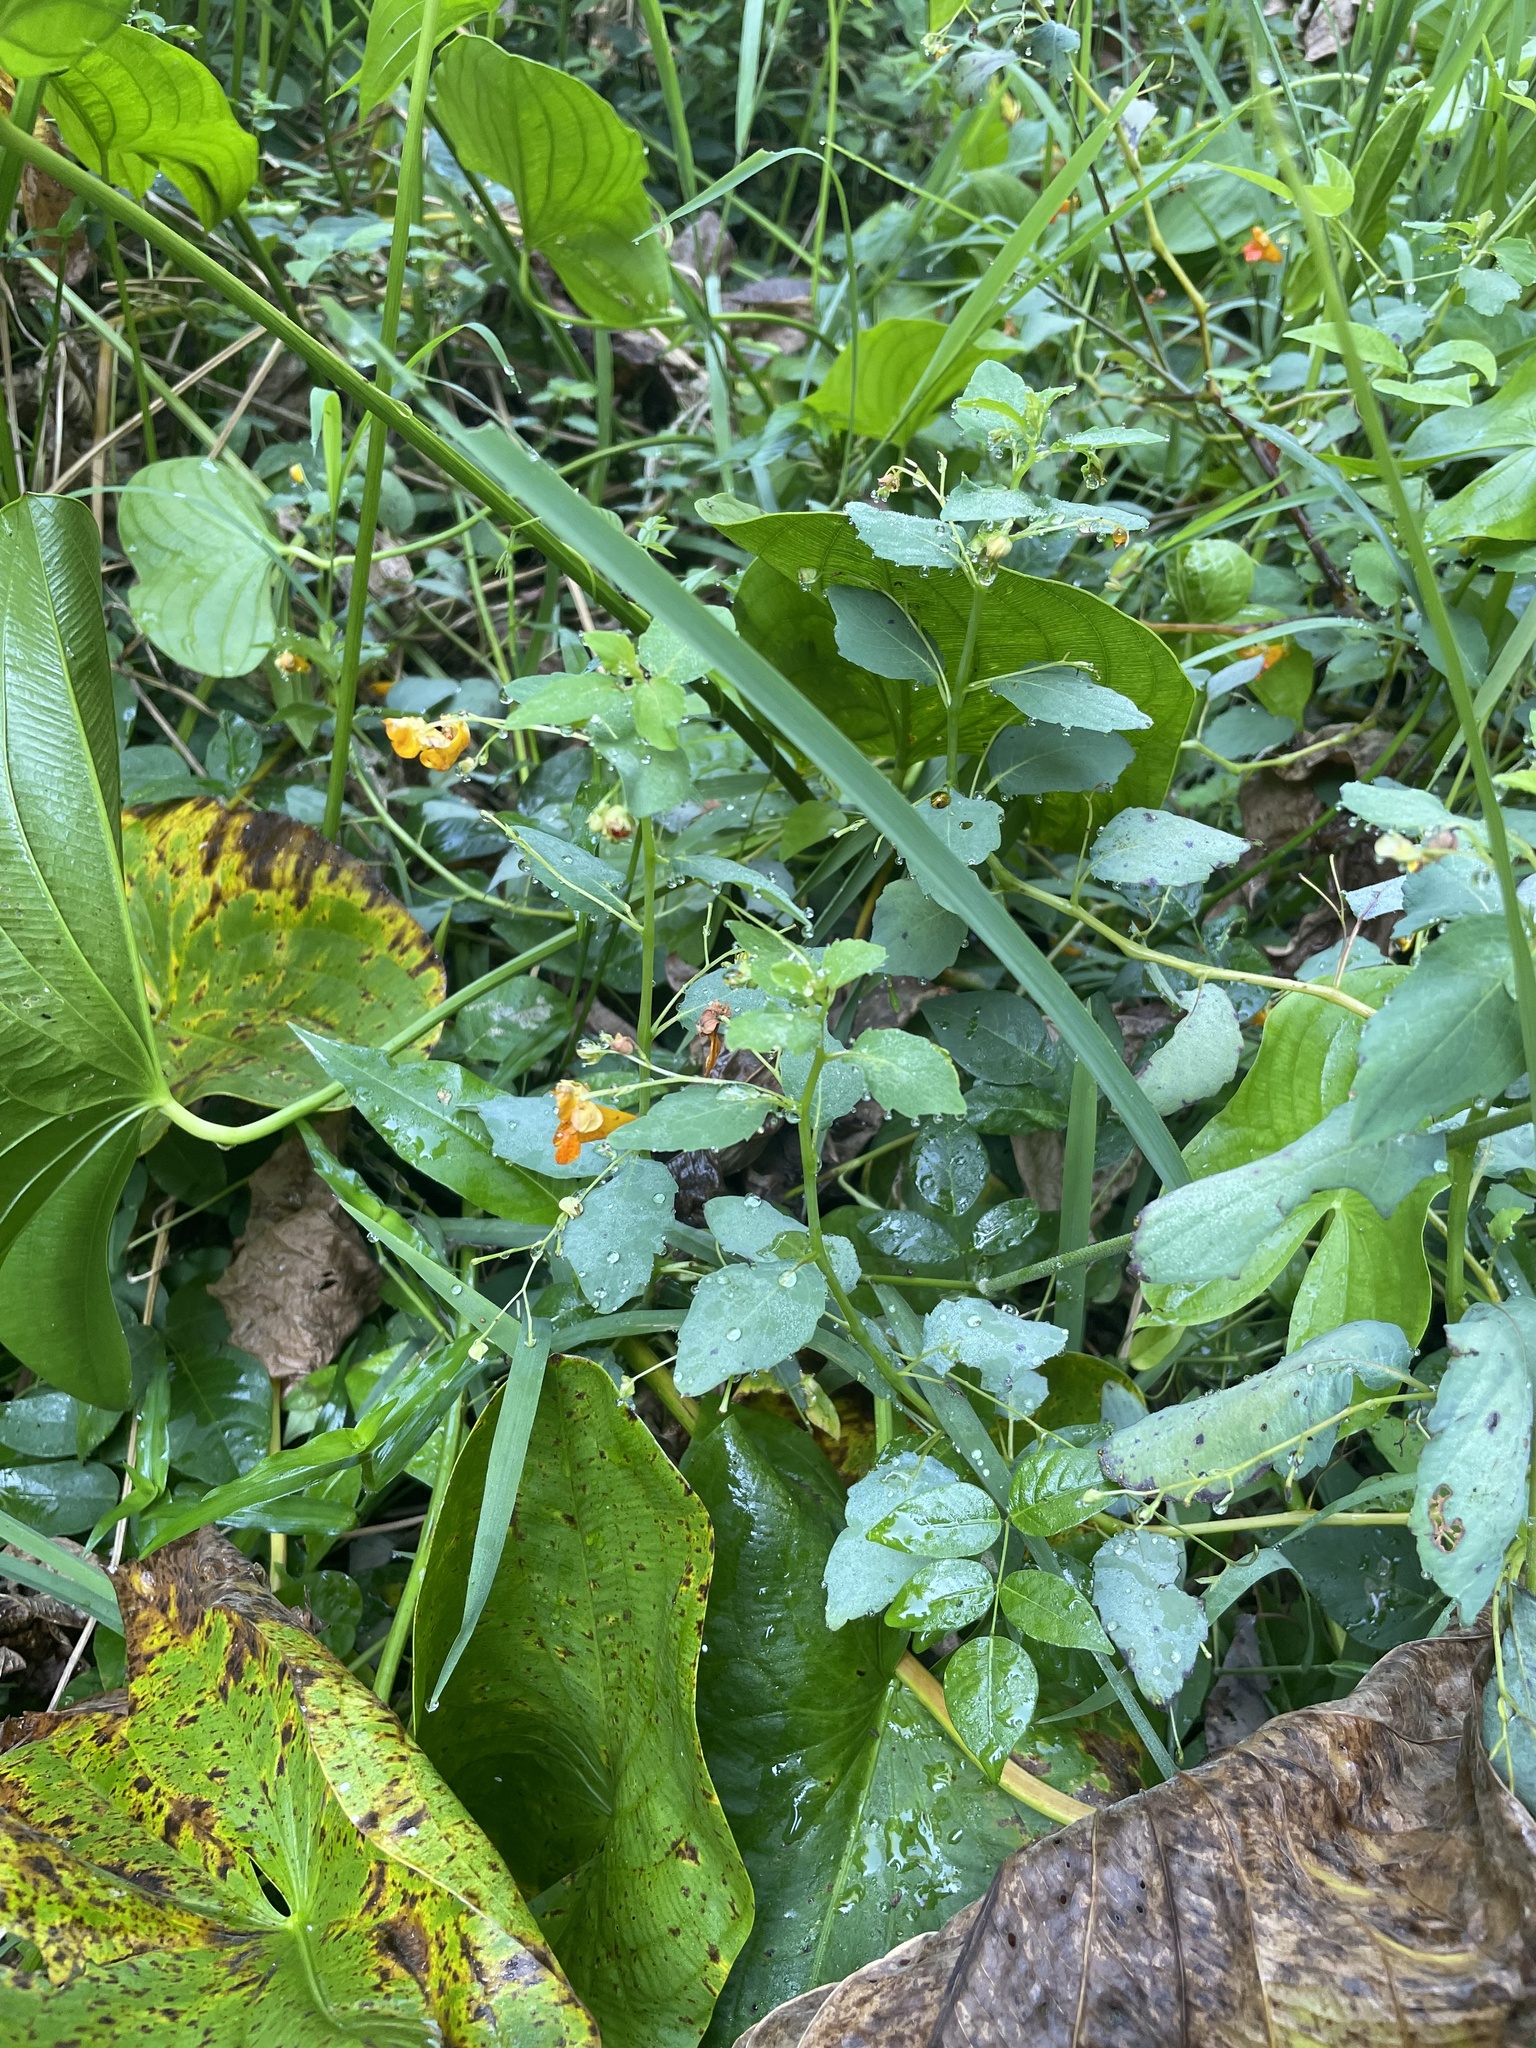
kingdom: Plantae
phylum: Tracheophyta
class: Magnoliopsida
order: Ericales
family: Balsaminaceae
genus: Impatiens
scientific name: Impatiens capensis
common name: Orange balsam
